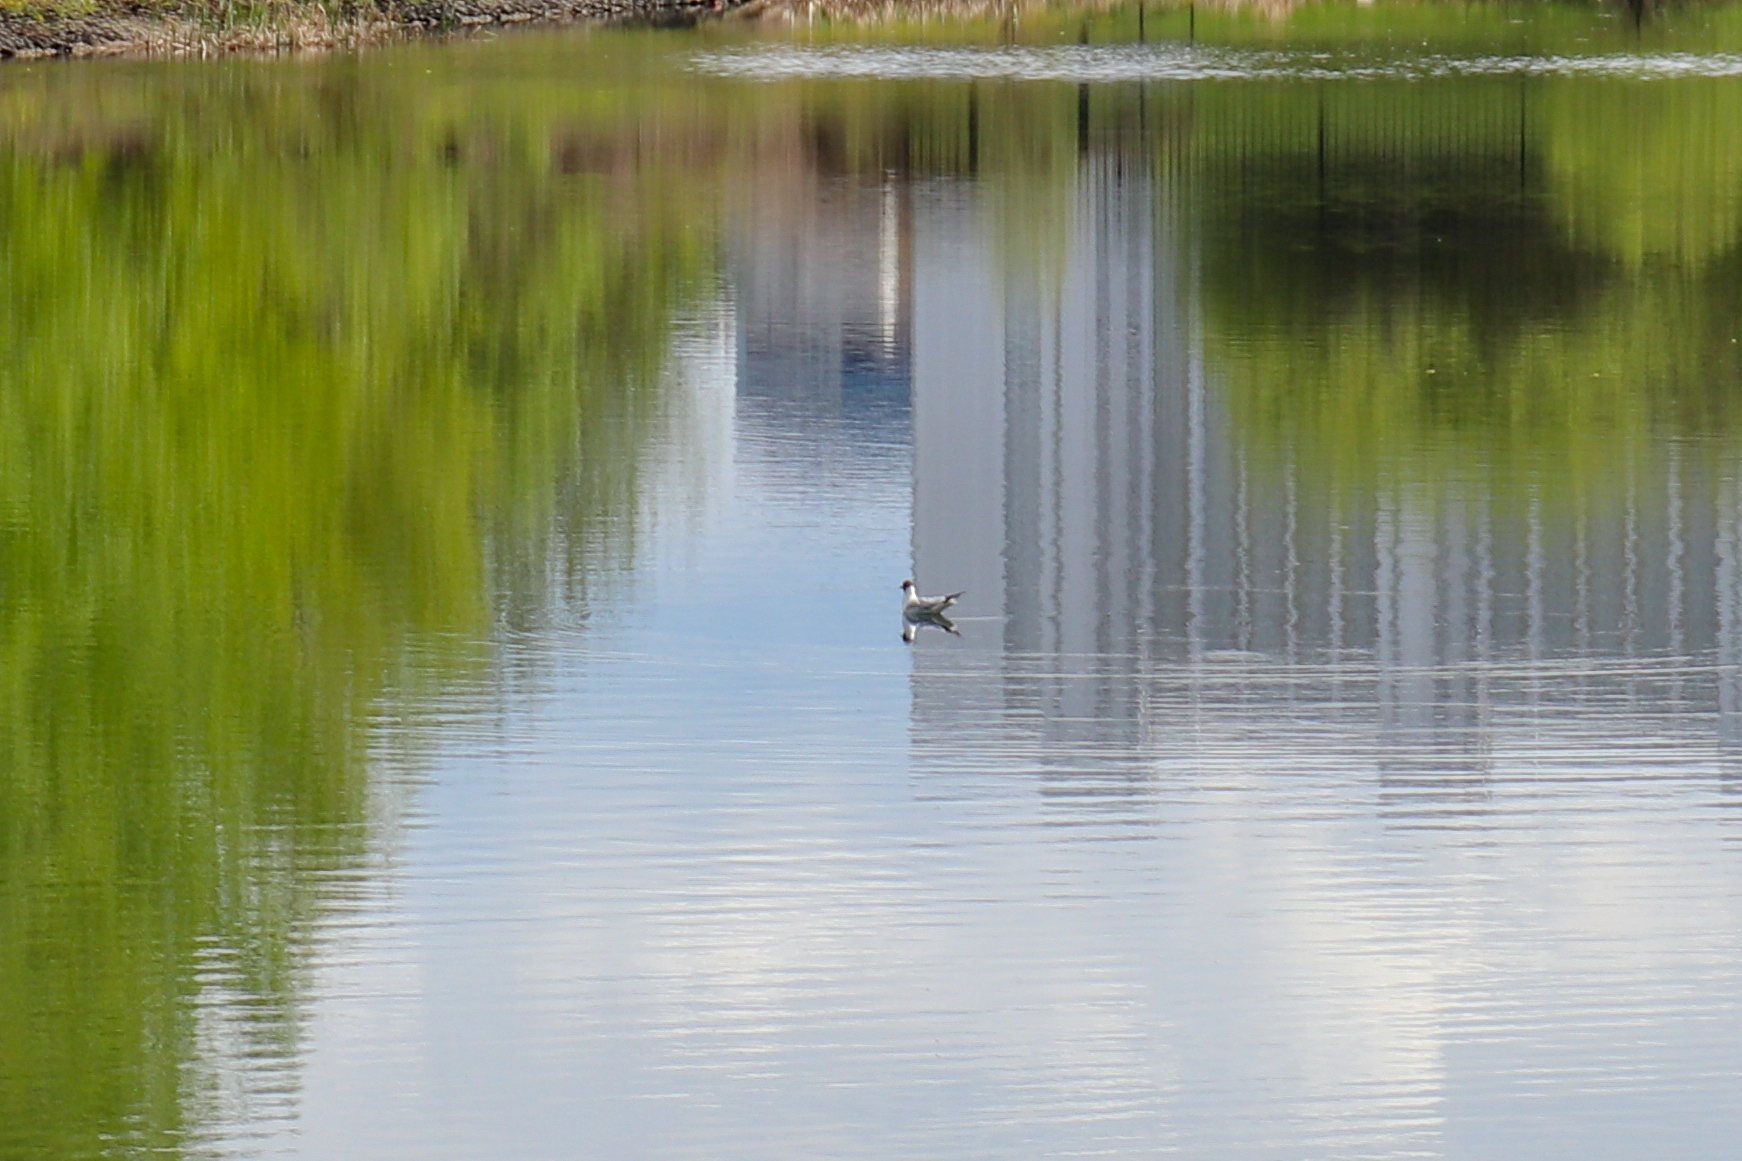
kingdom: Animalia
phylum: Chordata
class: Aves
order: Charadriiformes
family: Laridae
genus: Chroicocephalus
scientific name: Chroicocephalus ridibundus
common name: Black-headed gull
